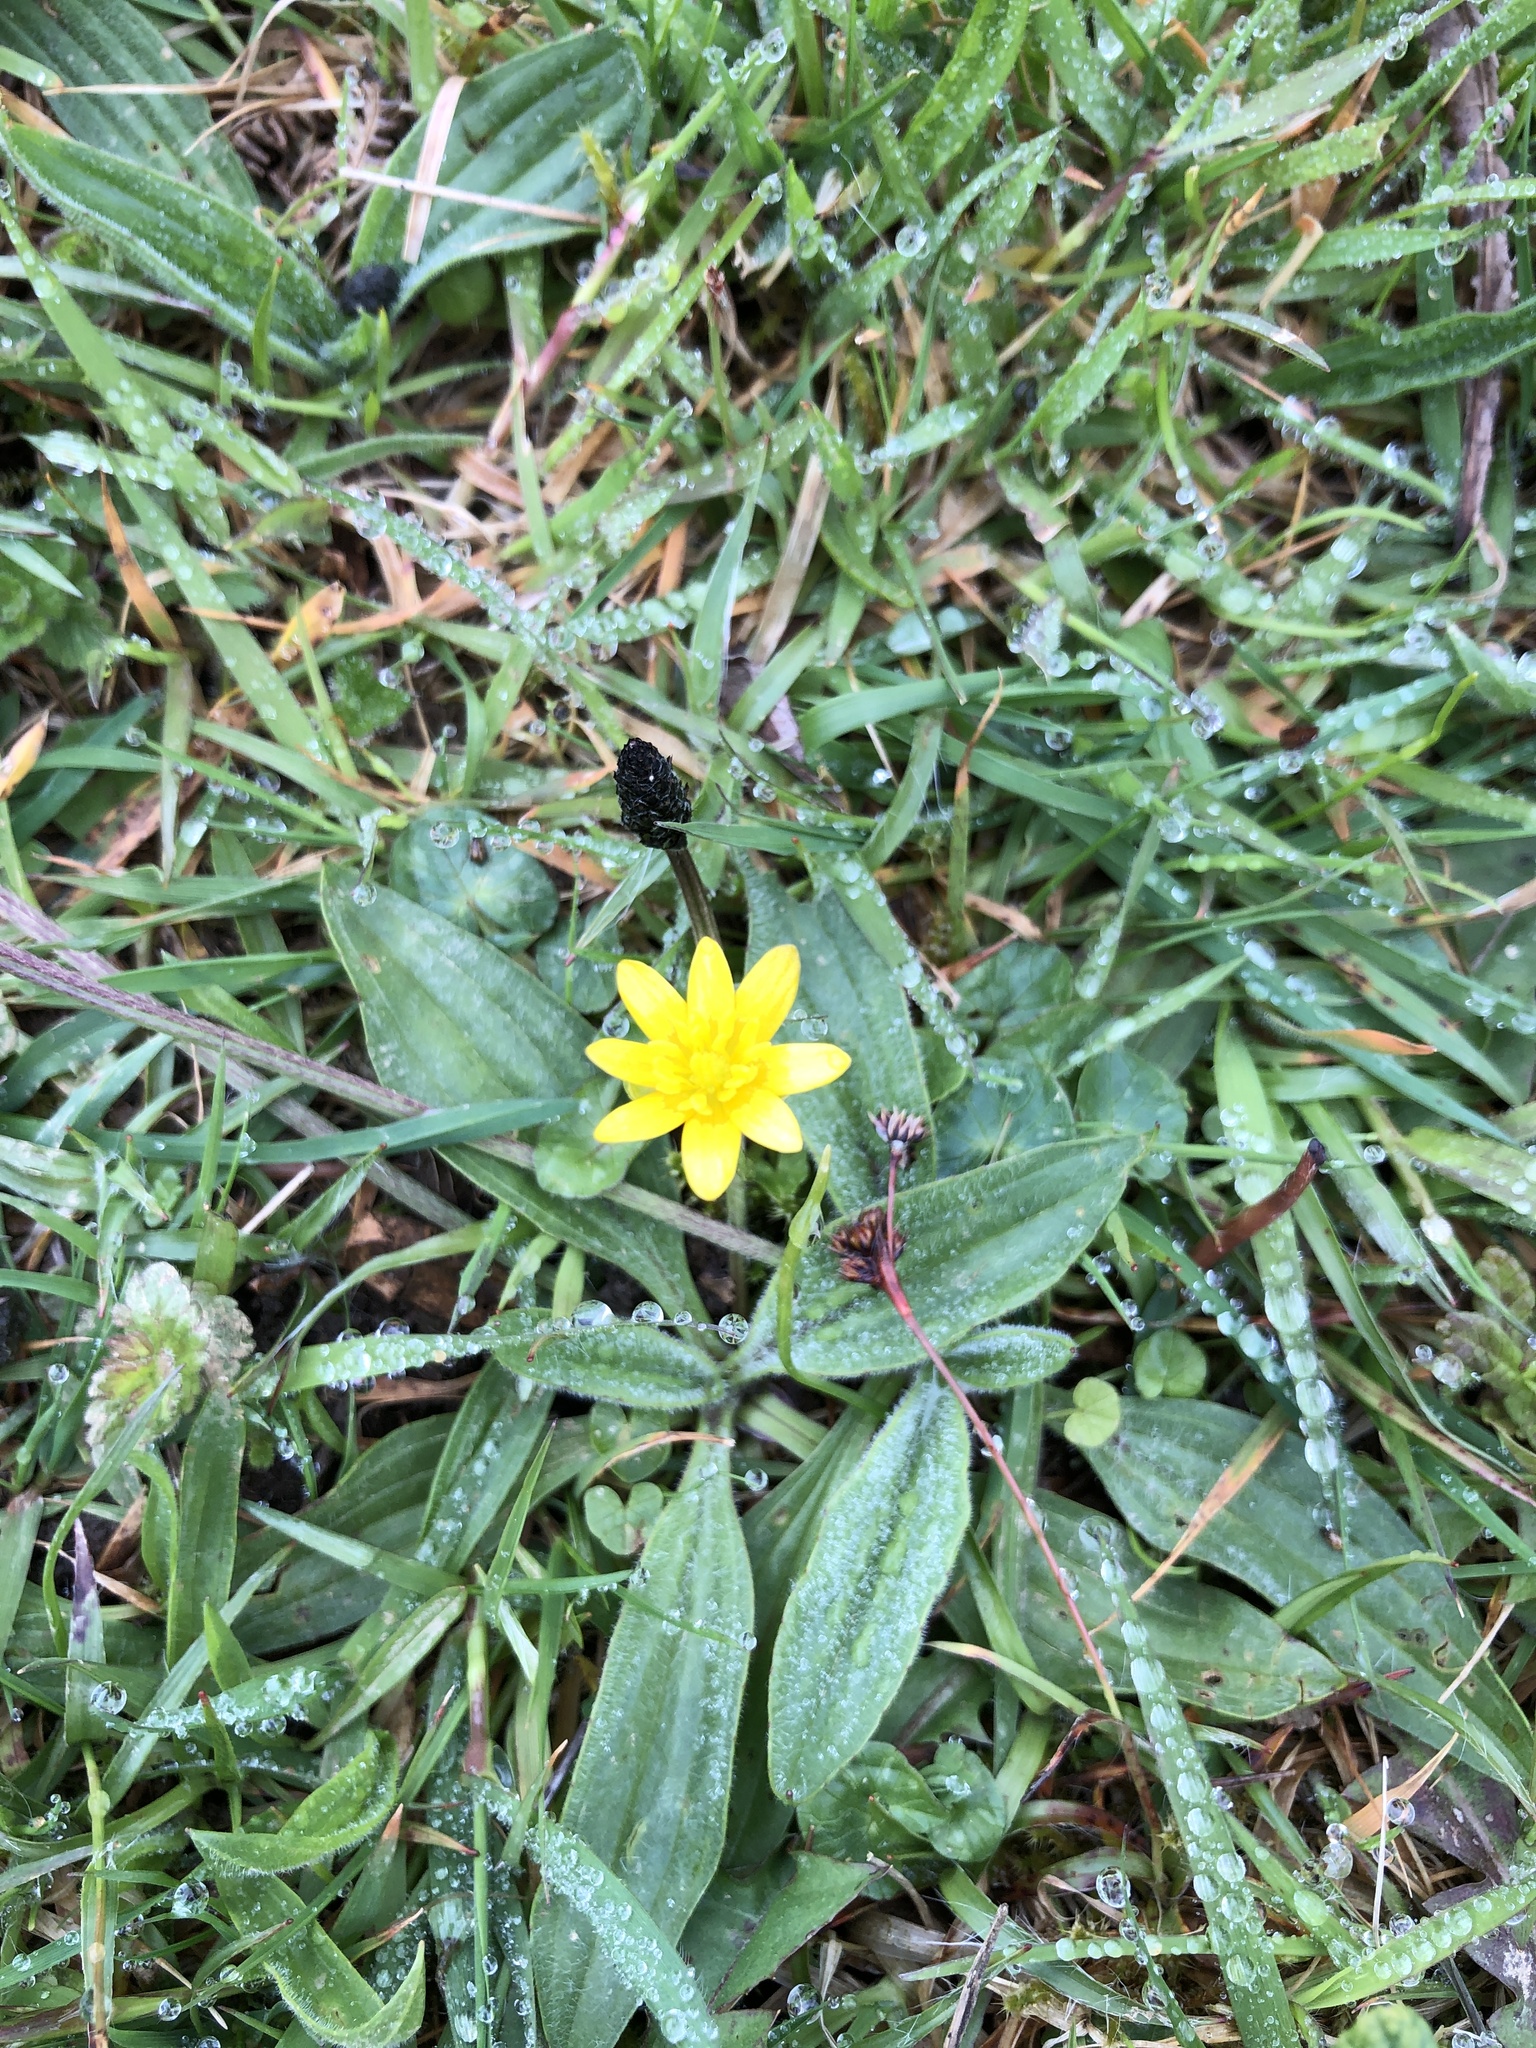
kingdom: Plantae
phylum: Tracheophyta
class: Magnoliopsida
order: Ranunculales
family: Ranunculaceae
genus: Ficaria
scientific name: Ficaria verna
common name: Lesser celandine
